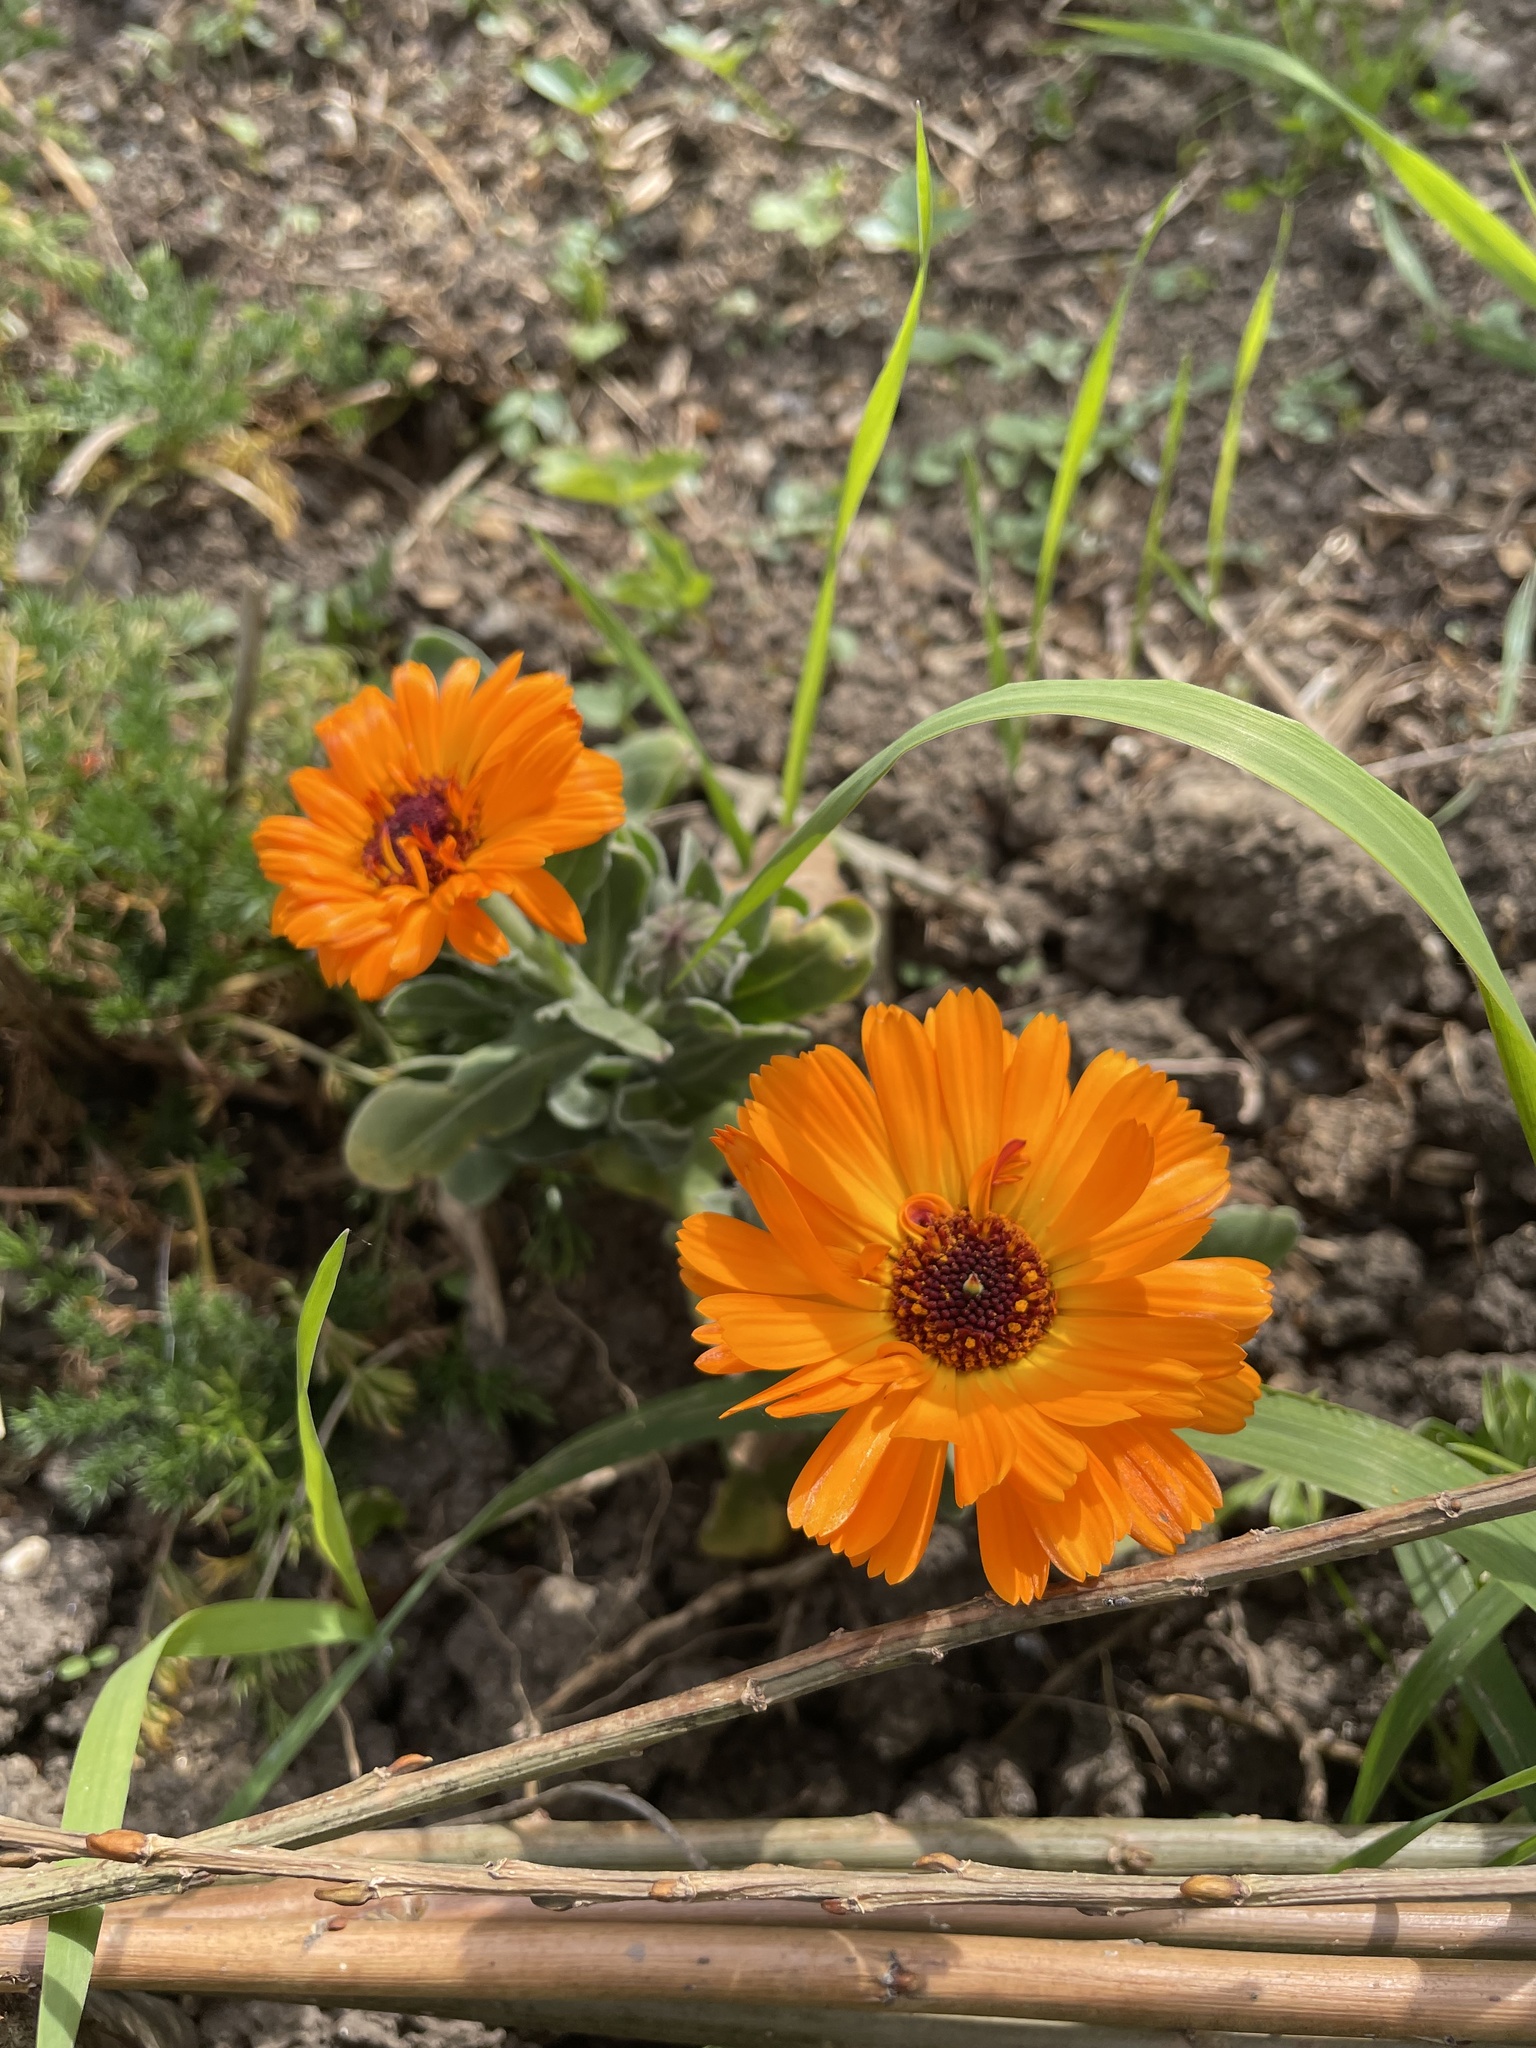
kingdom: Plantae
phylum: Tracheophyta
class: Magnoliopsida
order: Asterales
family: Asteraceae
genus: Calendula
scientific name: Calendula officinalis
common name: Pot marigold
